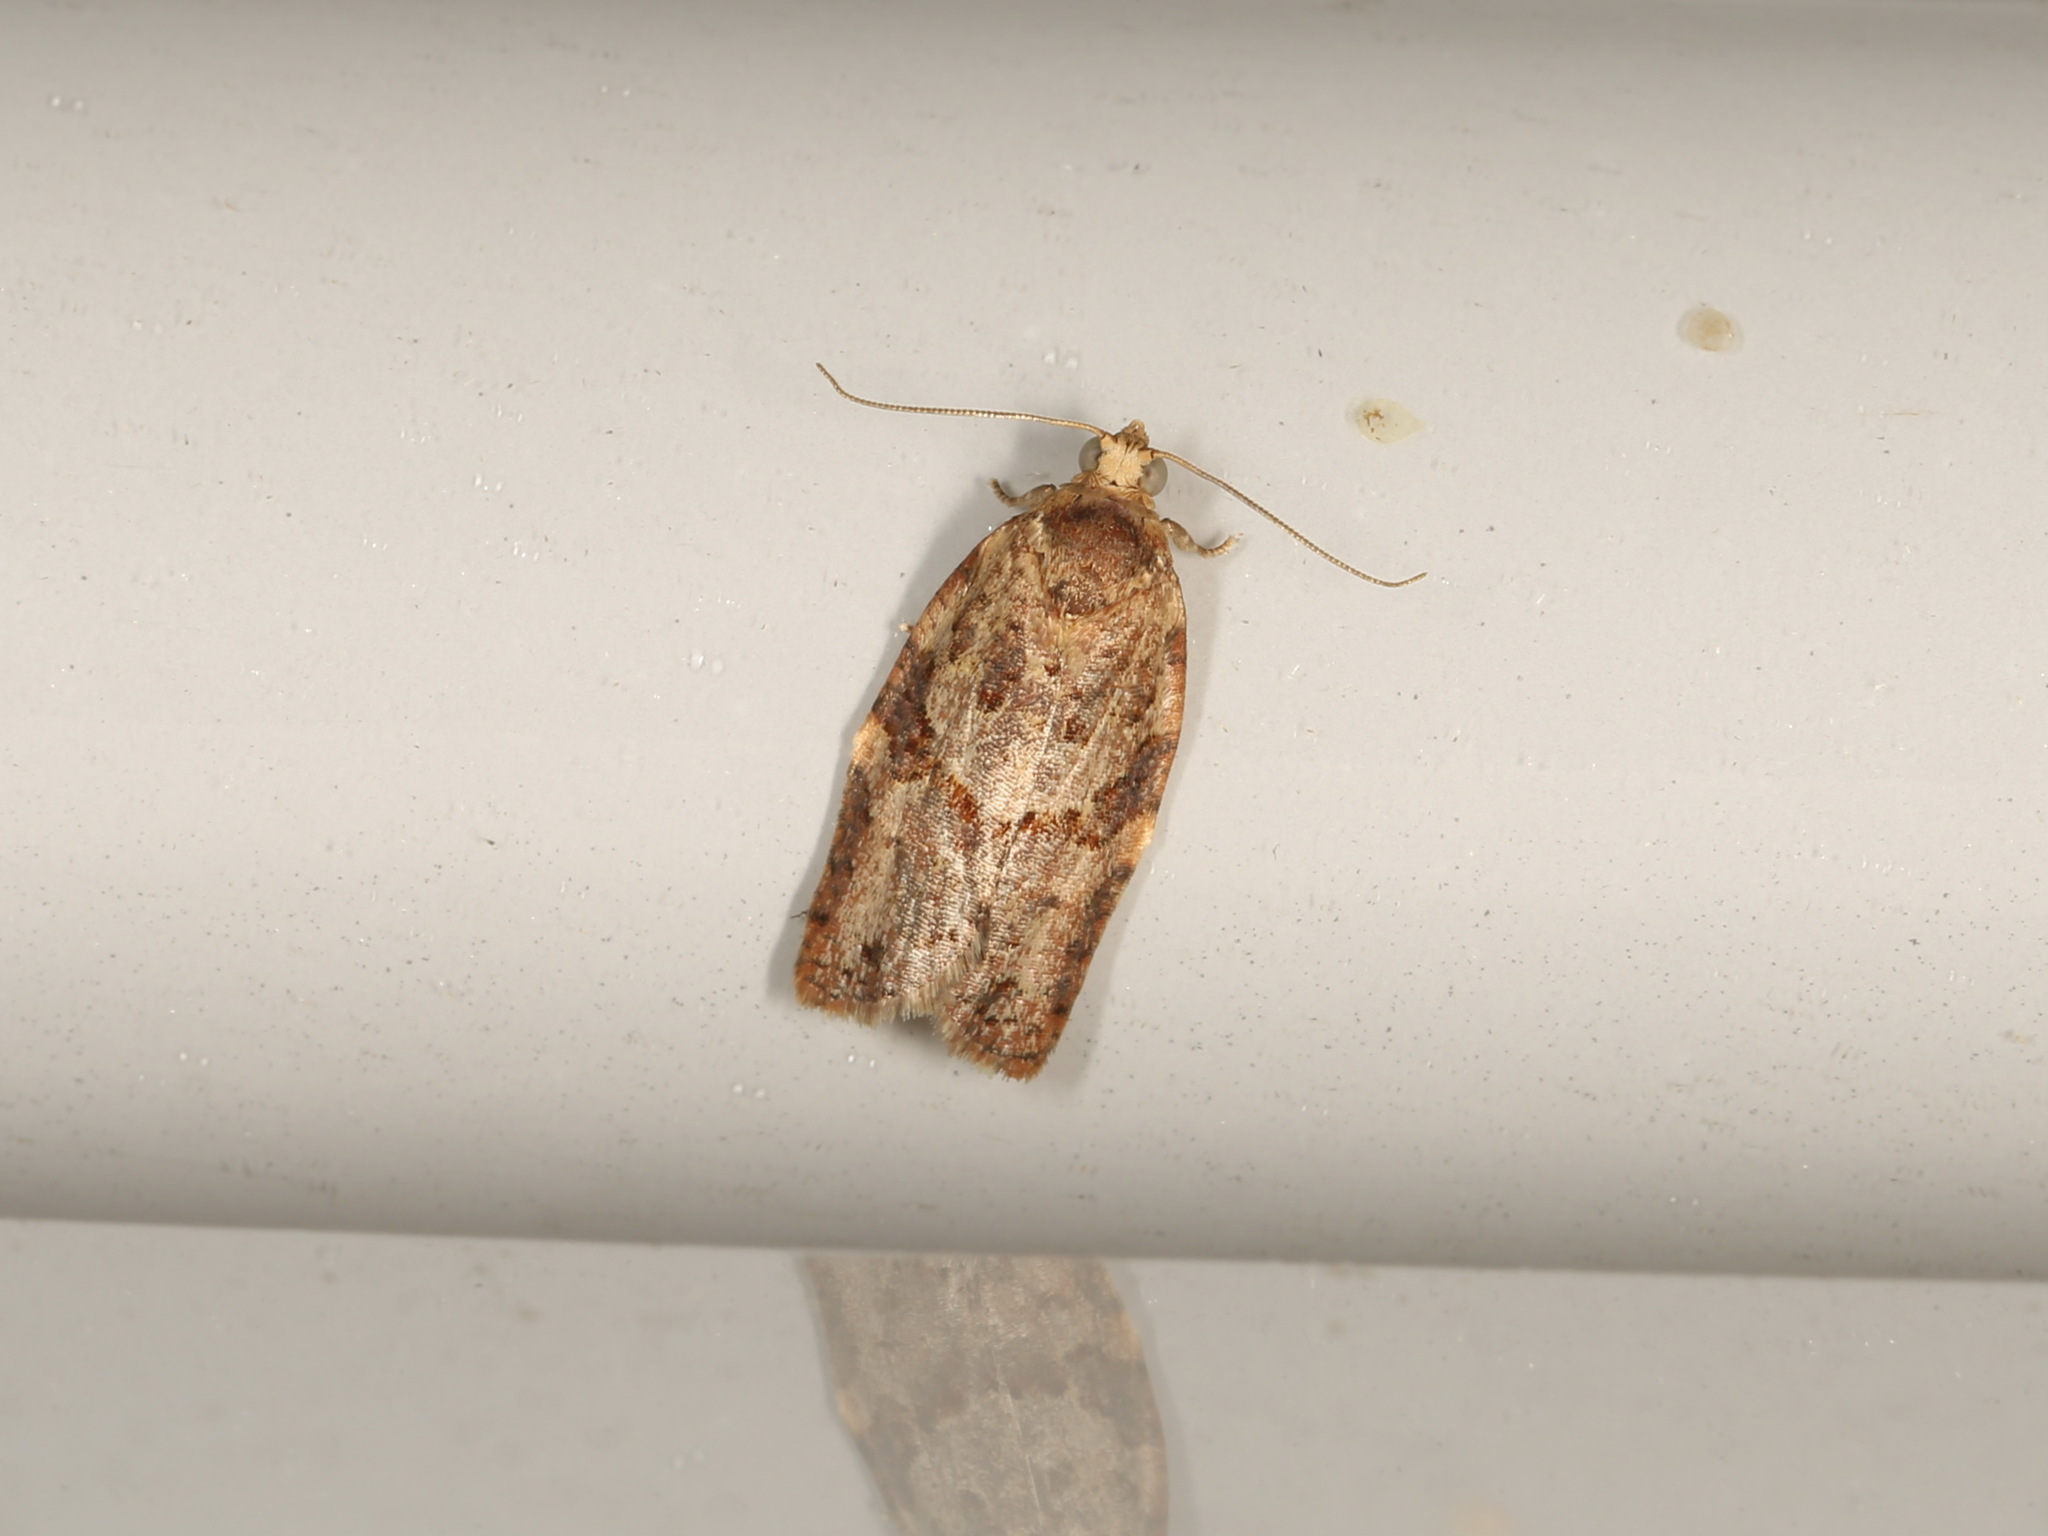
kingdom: Animalia
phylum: Arthropoda
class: Insecta
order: Lepidoptera
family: Tortricidae
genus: Epiphyas
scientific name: Epiphyas ashworthana
